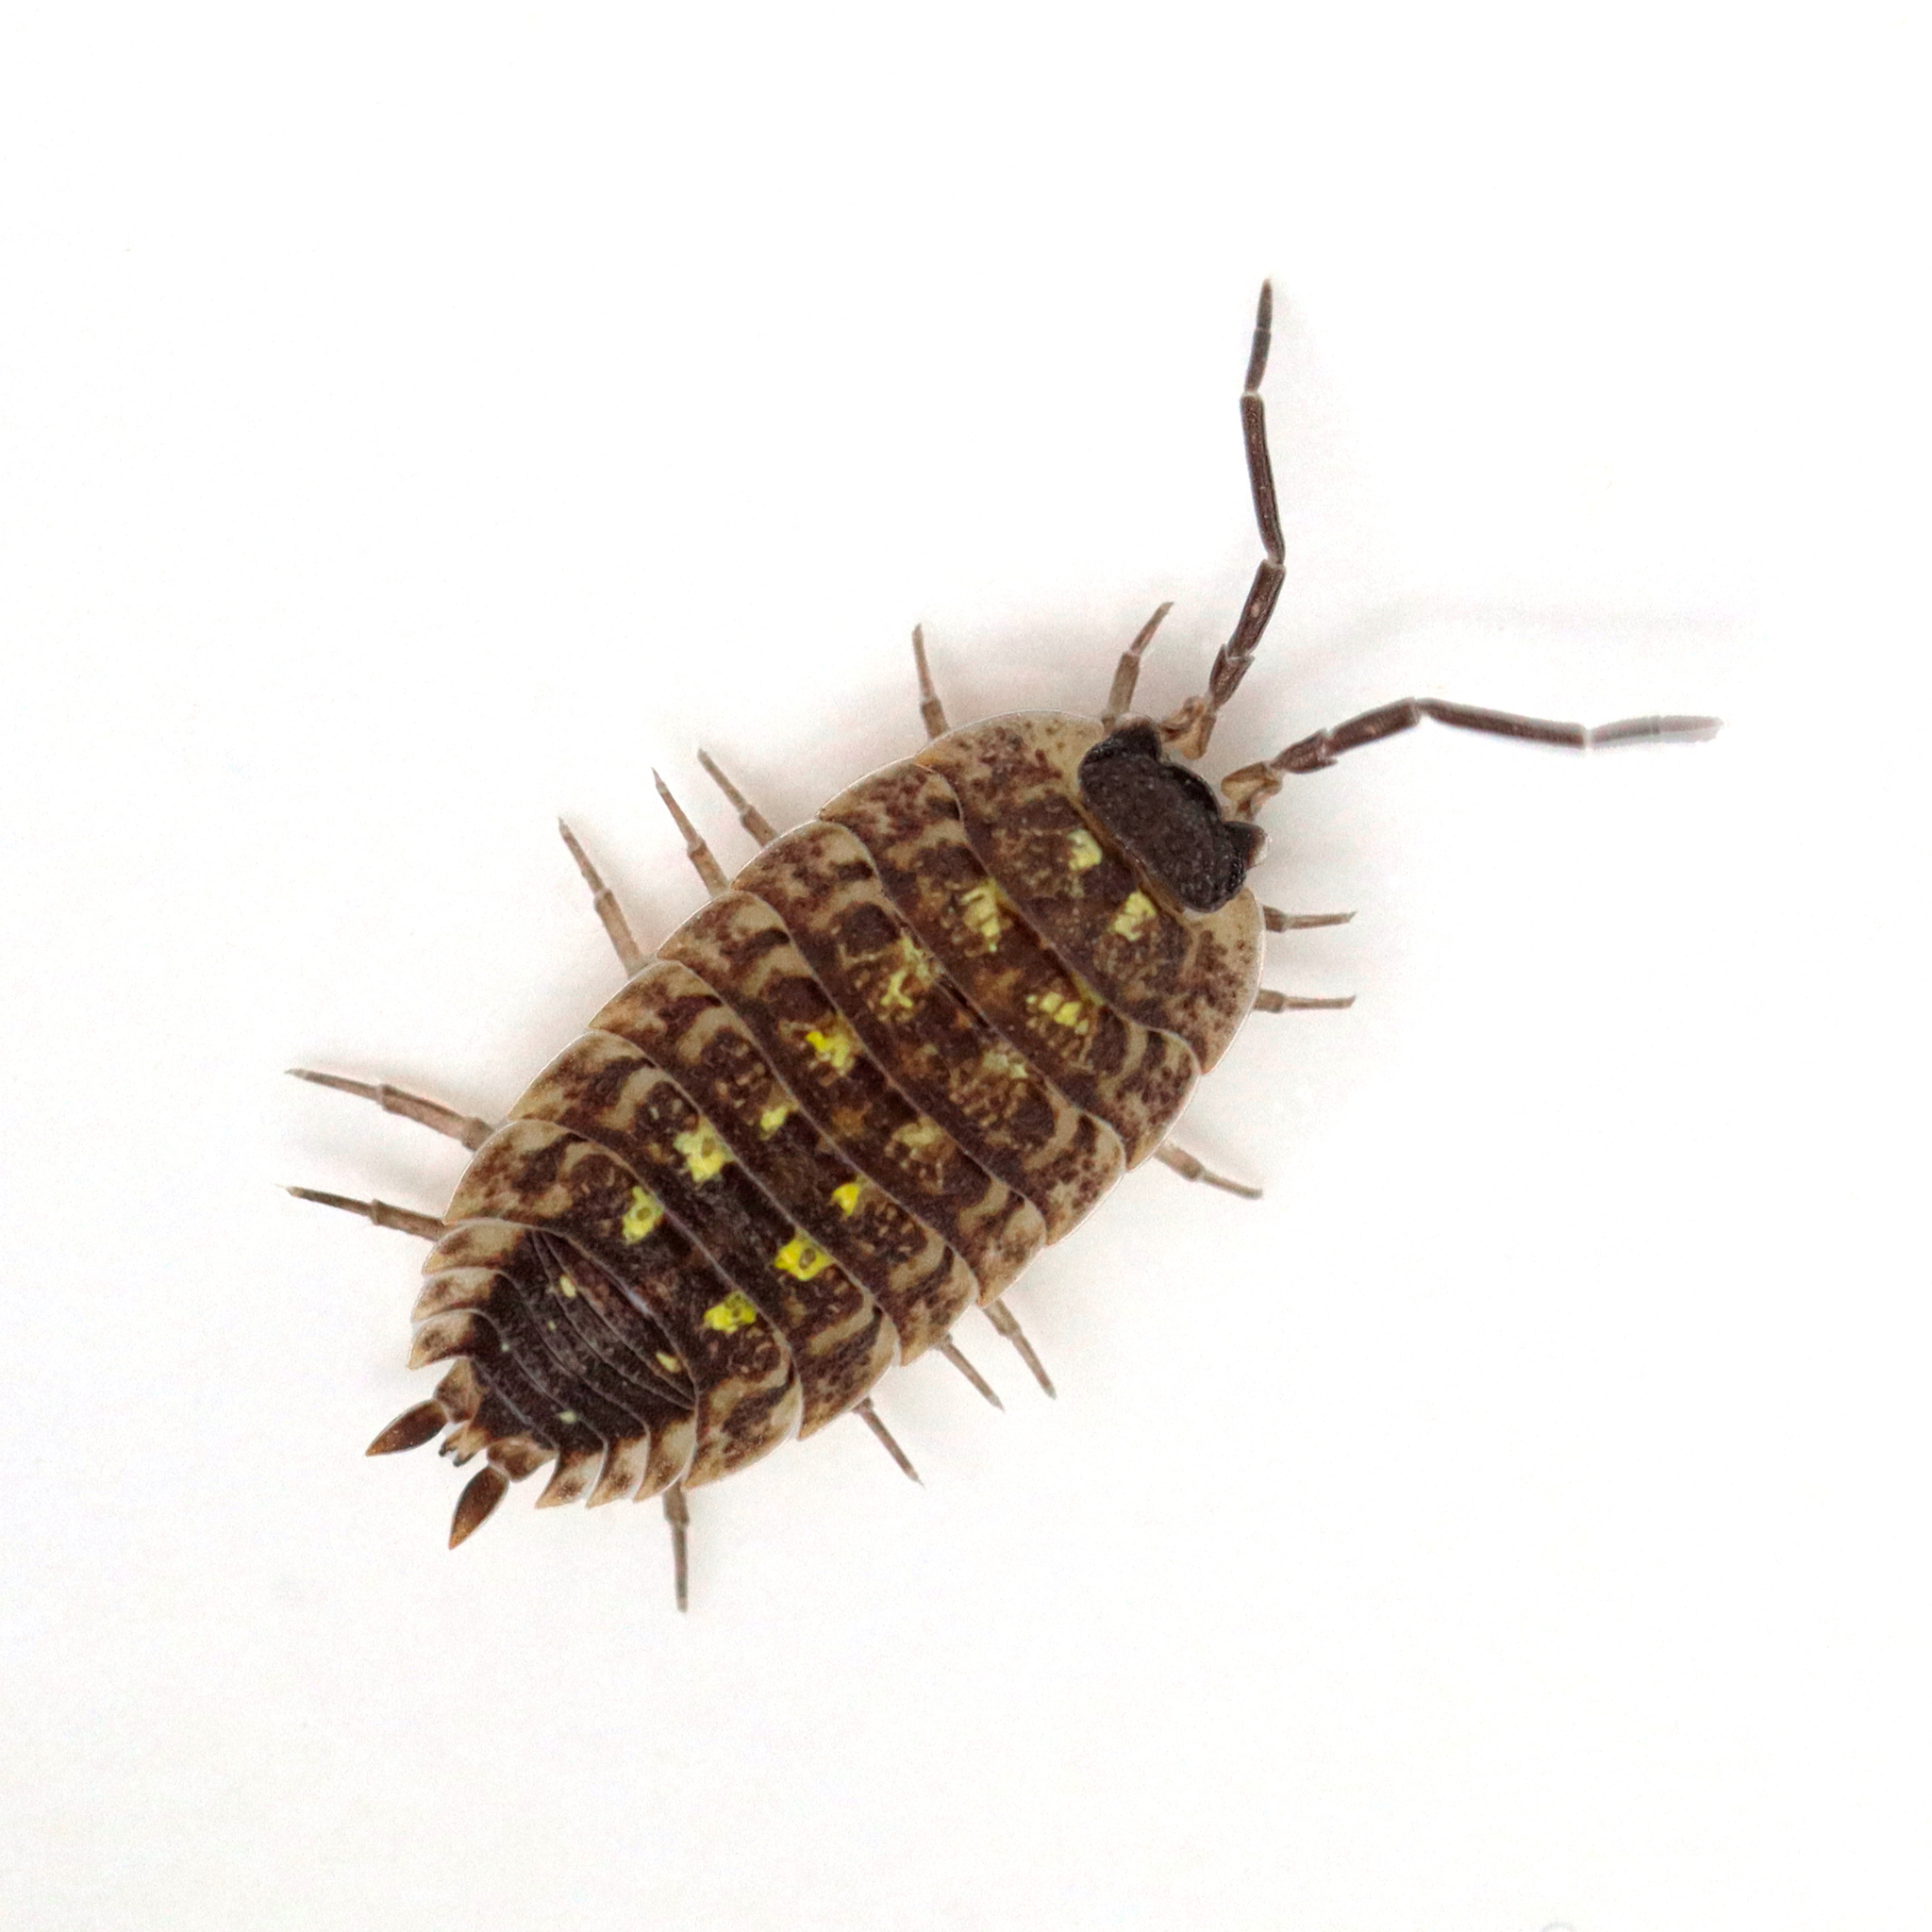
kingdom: Animalia
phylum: Arthropoda
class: Malacostraca
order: Isopoda
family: Porcellionidae
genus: Porcellio
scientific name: Porcellio spinicornis
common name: Painted woodlouse
